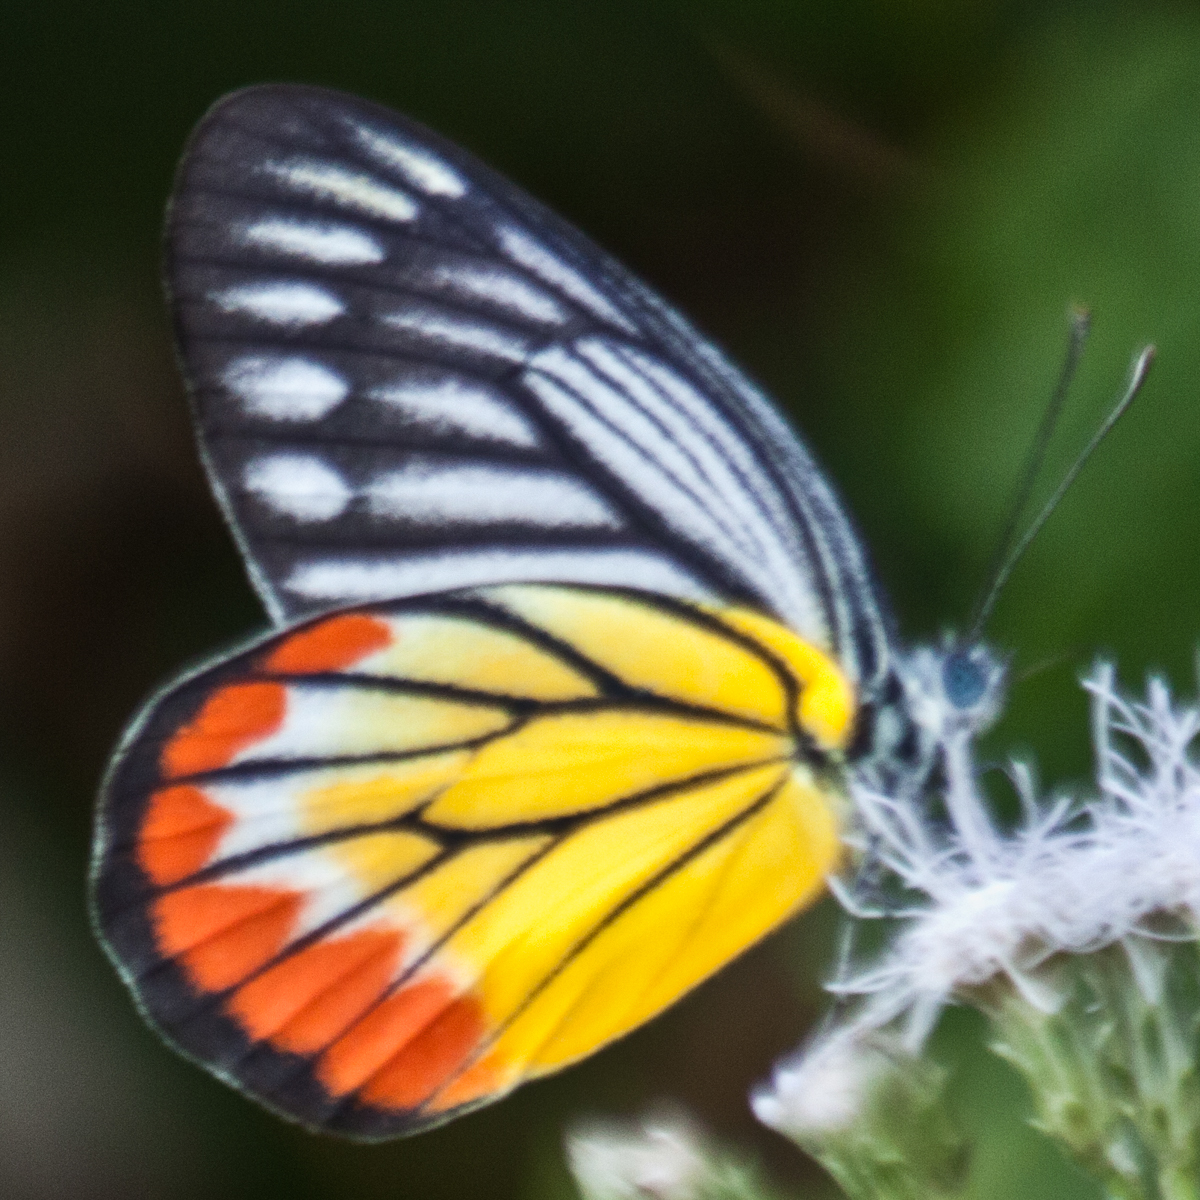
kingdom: Animalia
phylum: Arthropoda
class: Insecta
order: Lepidoptera
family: Pieridae
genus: Delias
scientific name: Delias hyparete
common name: Painted jezebel
